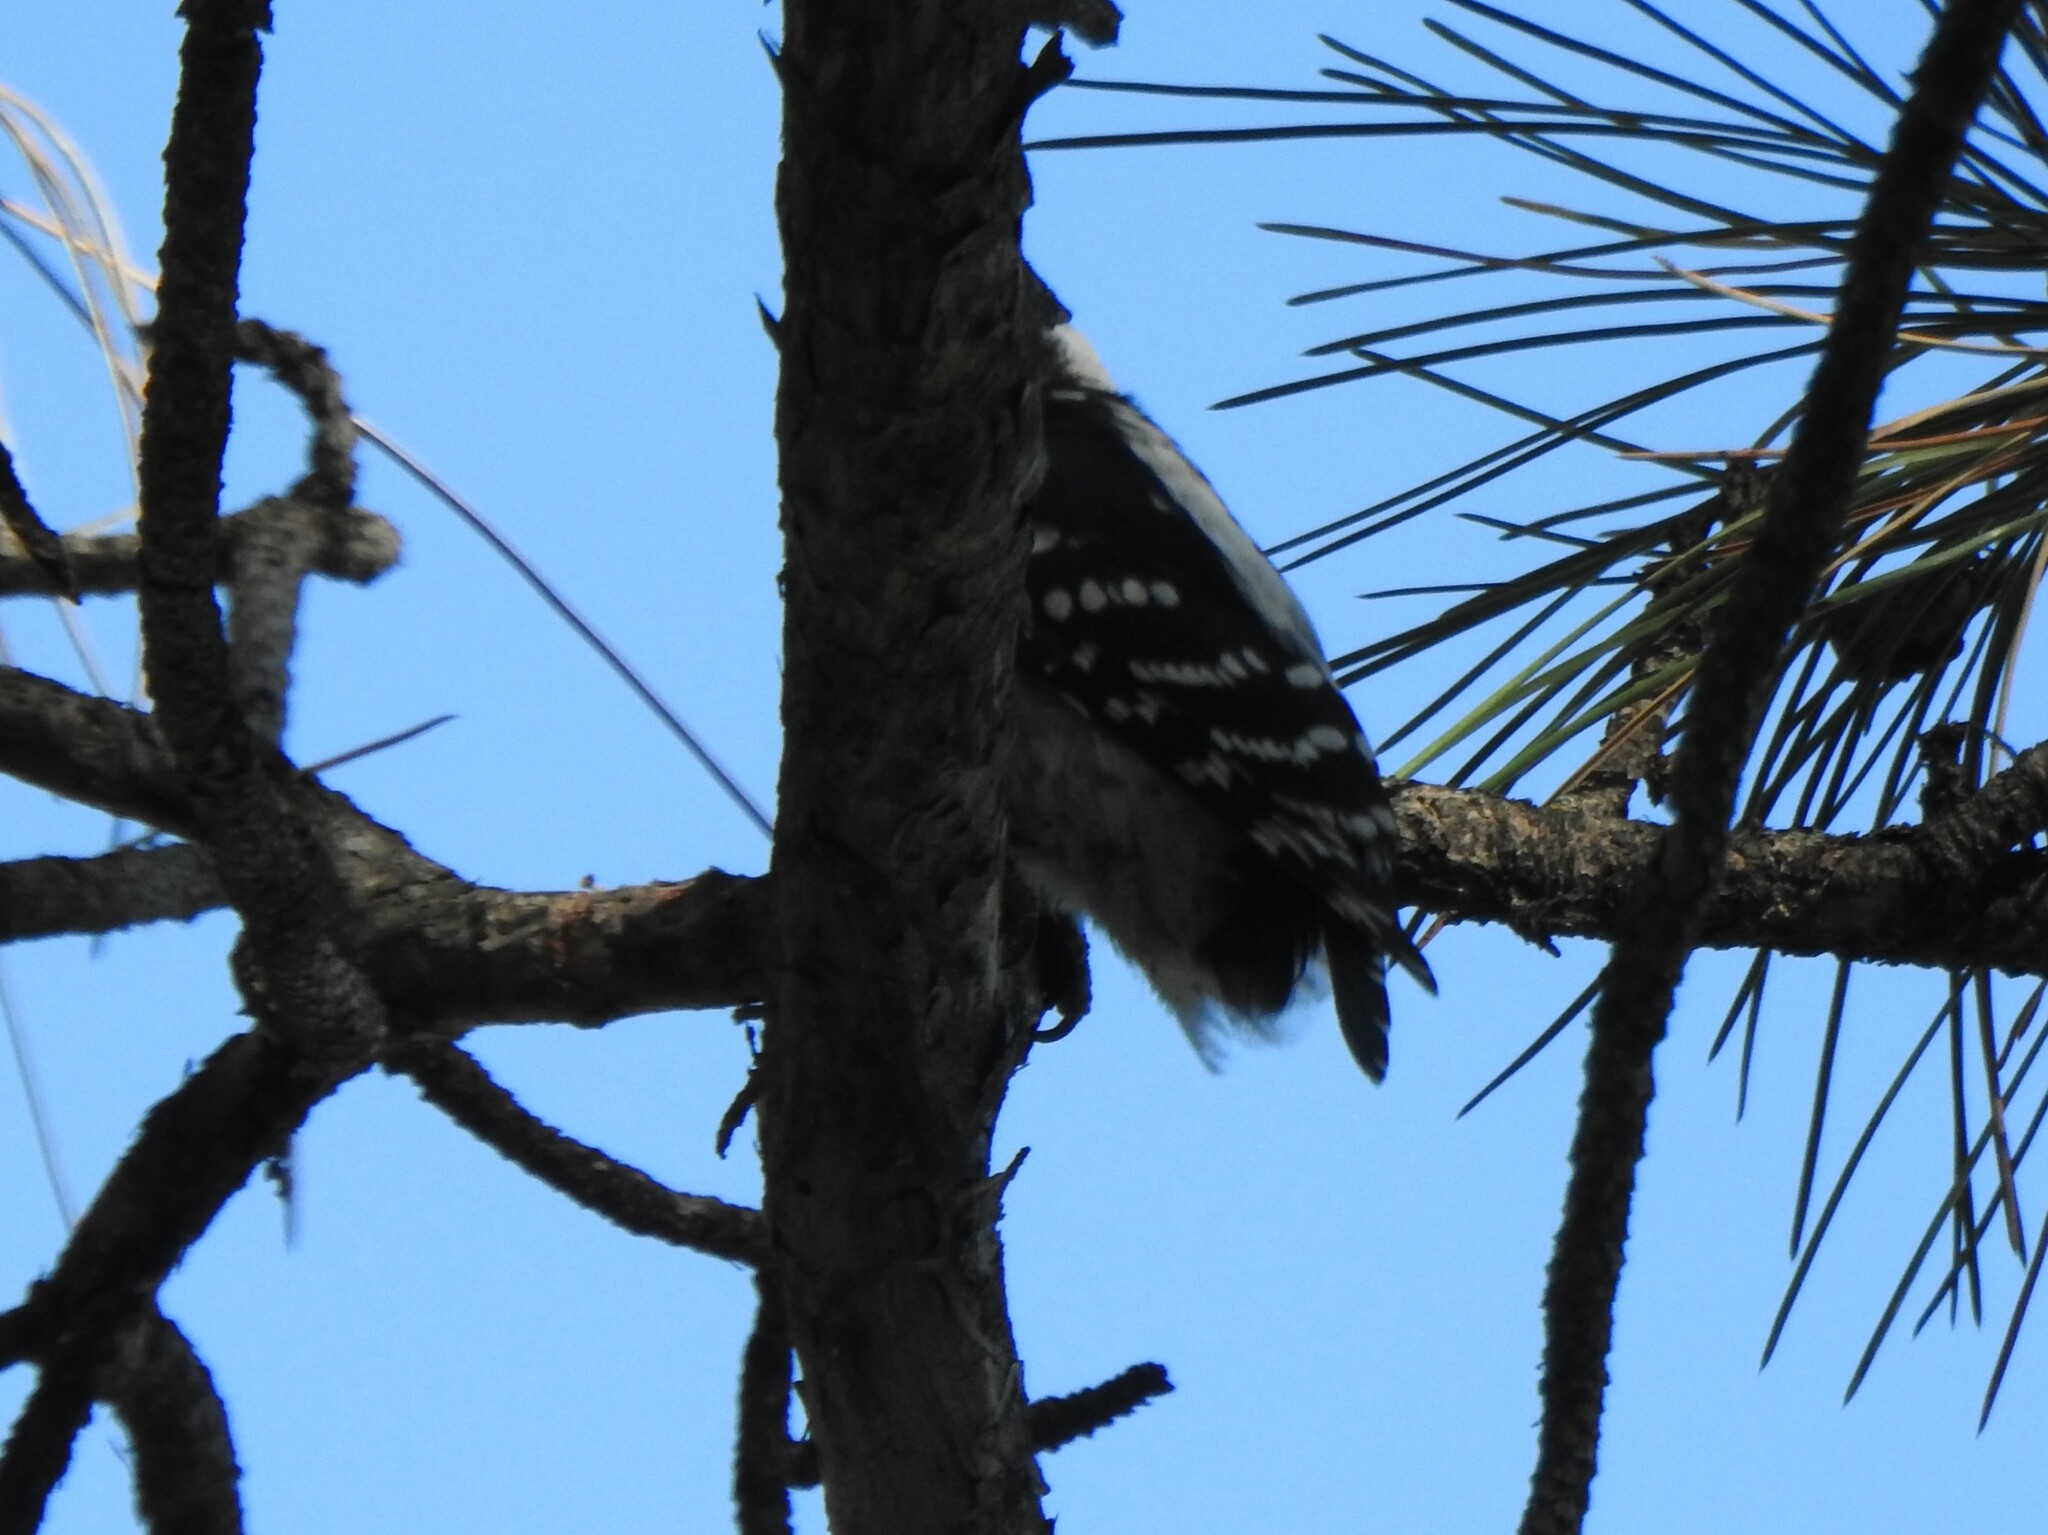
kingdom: Animalia
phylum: Chordata
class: Aves
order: Piciformes
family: Picidae
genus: Dryobates
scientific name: Dryobates pubescens
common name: Downy woodpecker
